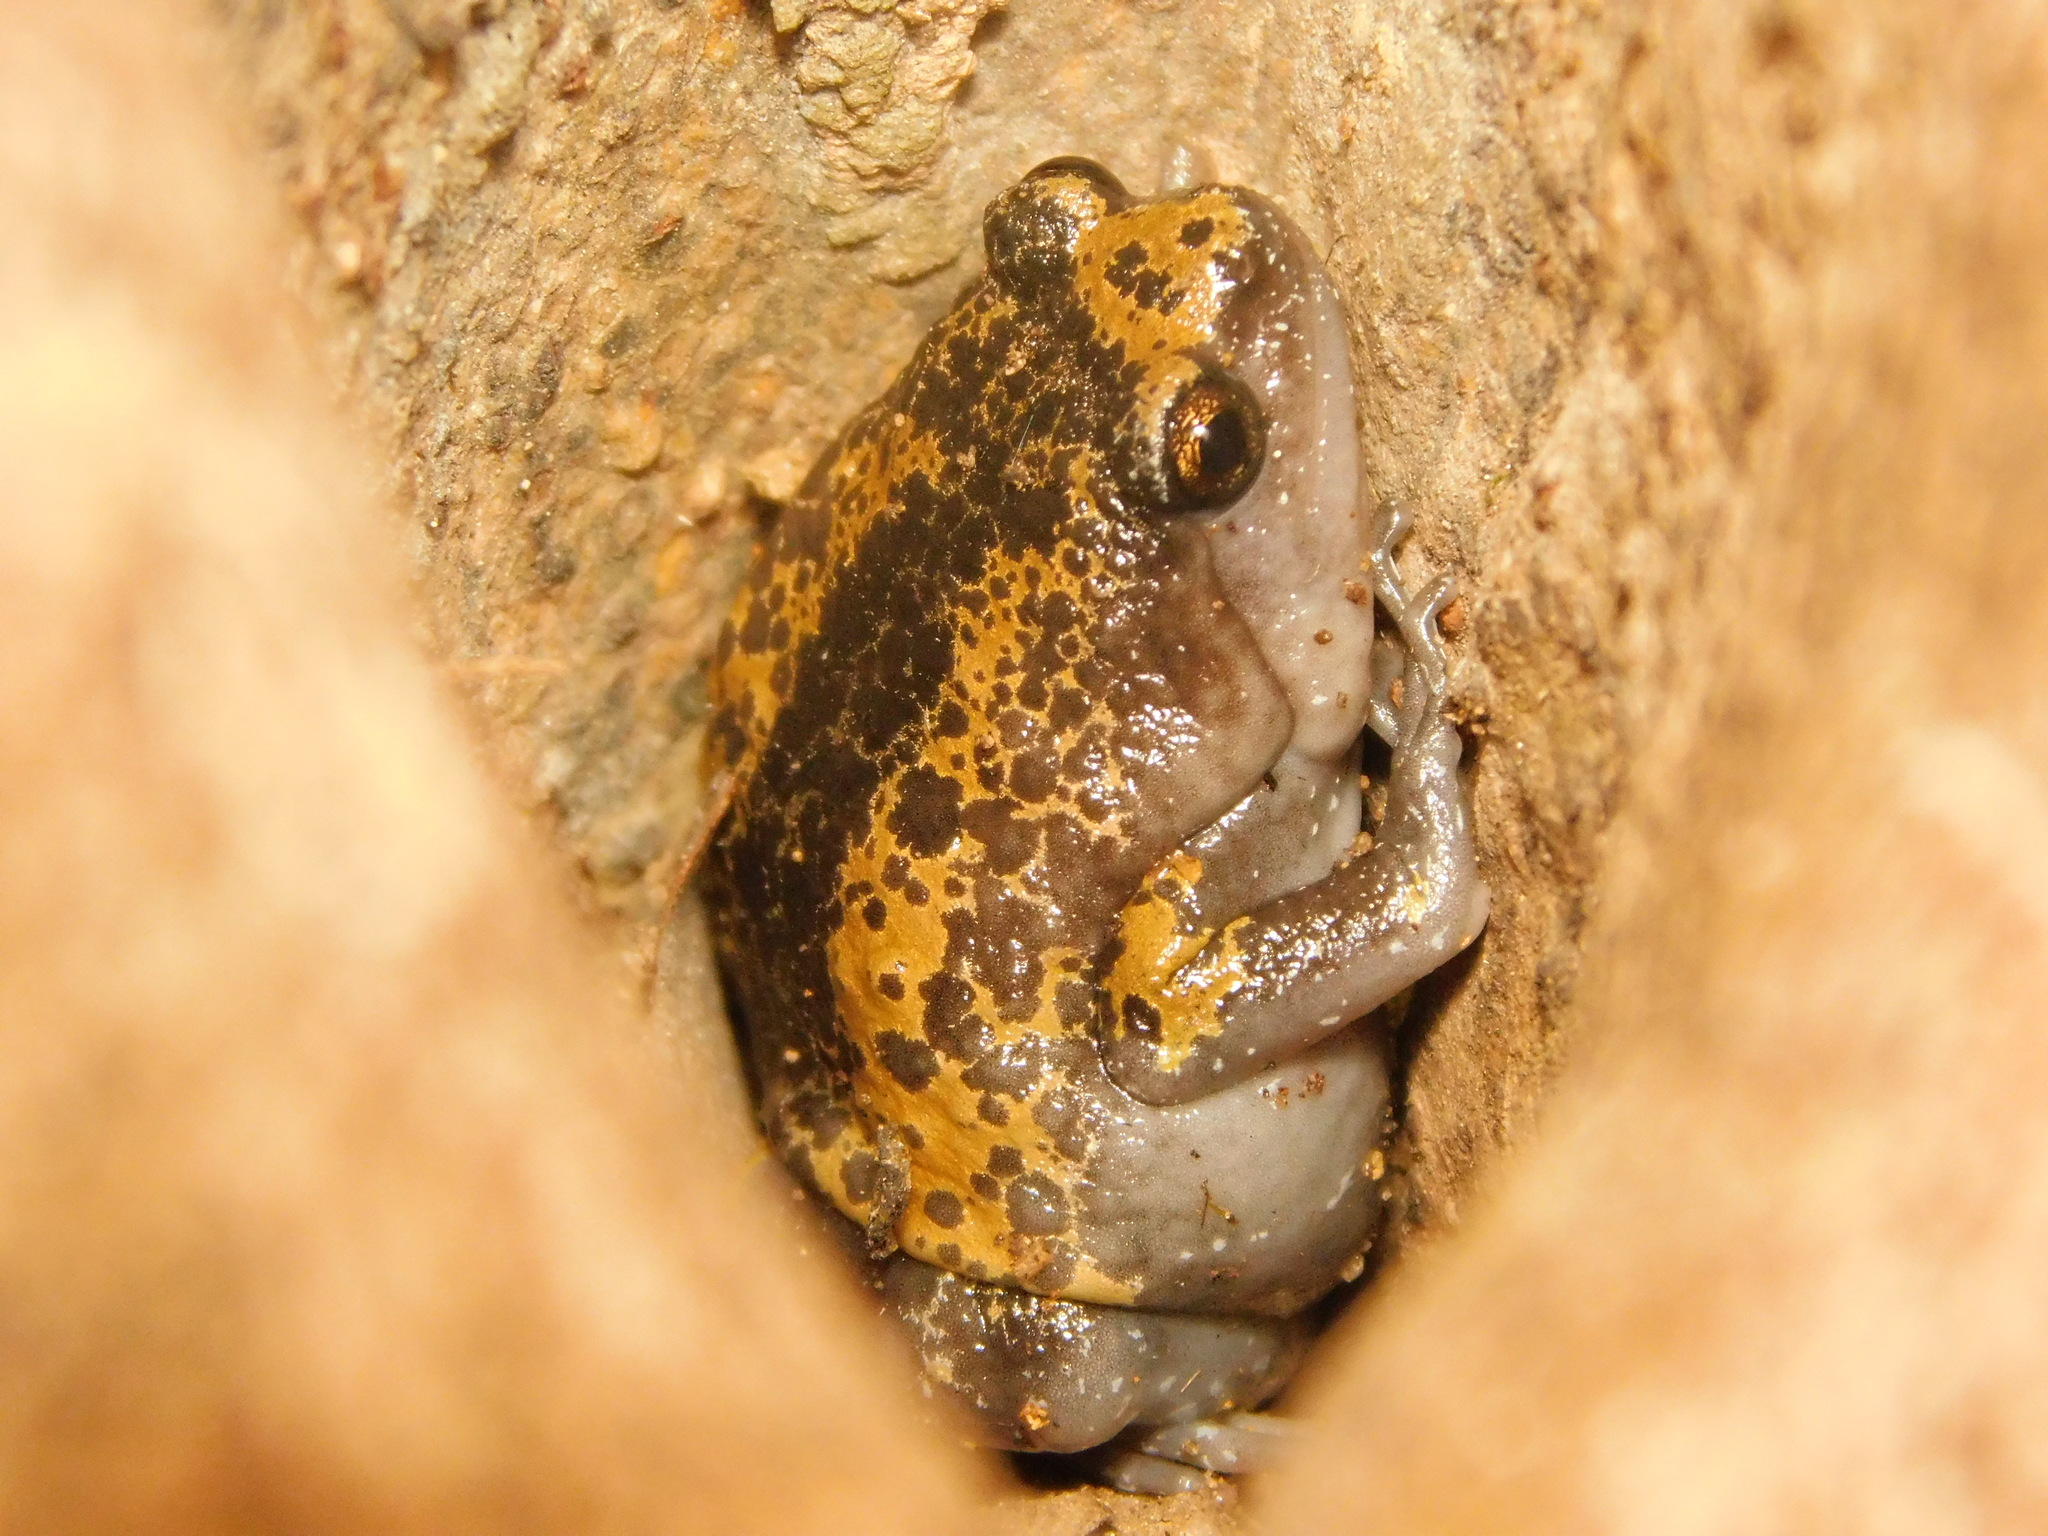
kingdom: Animalia
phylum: Chordata
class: Amphibia
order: Anura
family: Microhylidae
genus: Uperodon
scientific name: Uperodon triangularis
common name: Malabar dot frog
